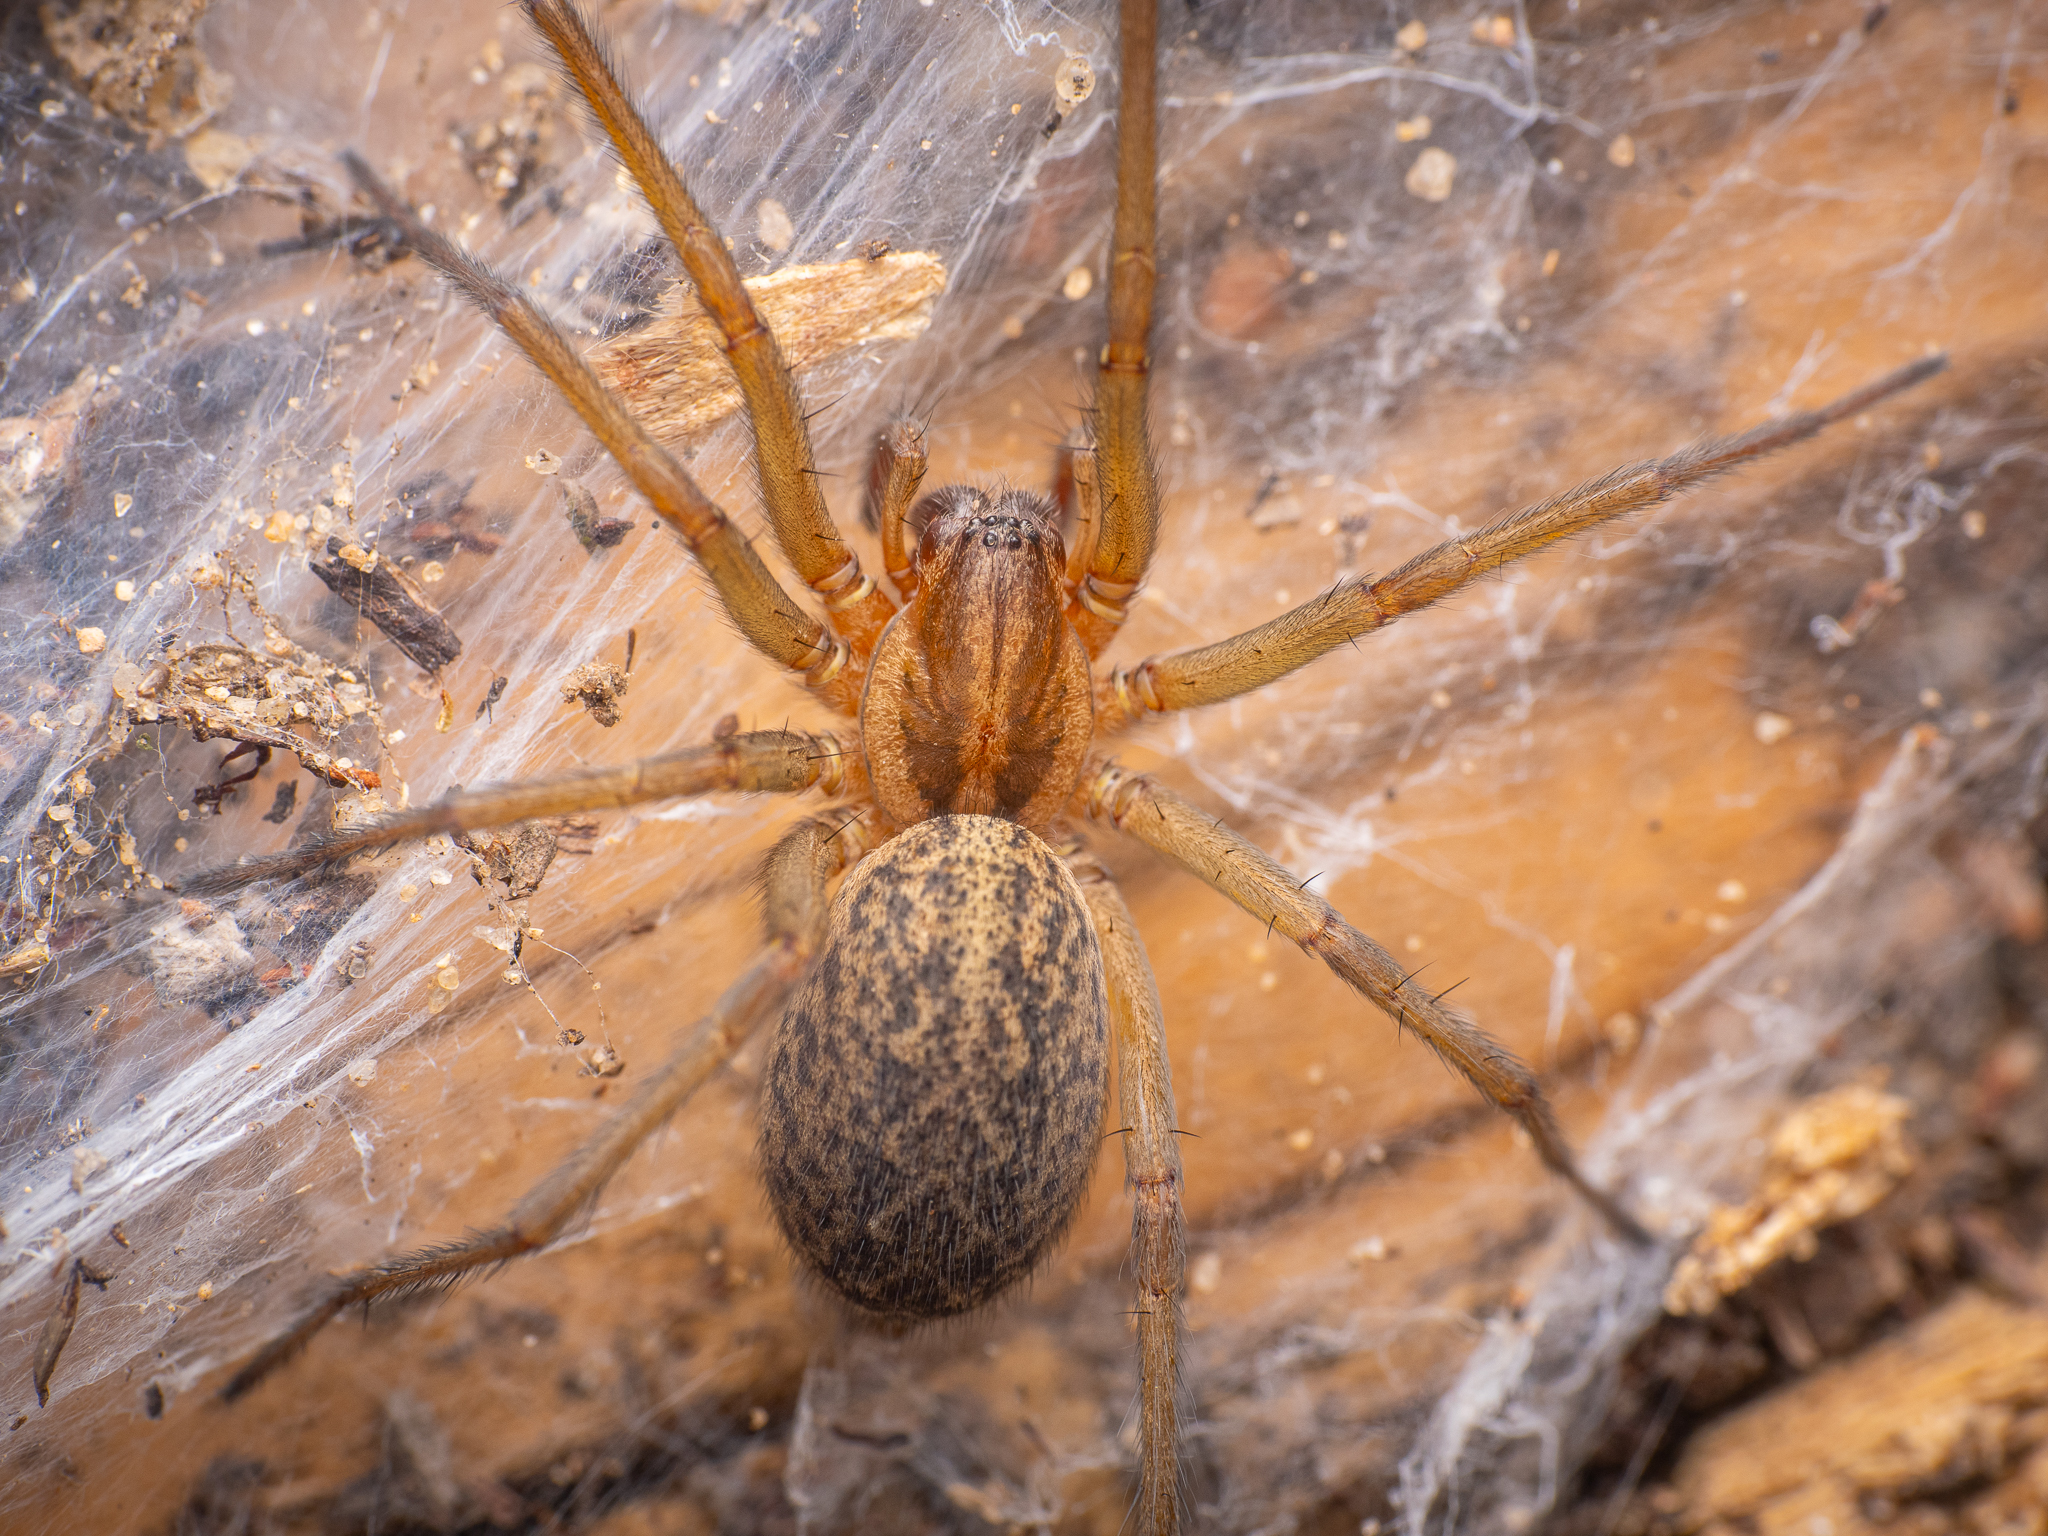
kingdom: Animalia
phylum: Arthropoda
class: Arachnida
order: Araneae
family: Agelenidae
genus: Eratigena
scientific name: Eratigena agrestis
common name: Hobo spider
